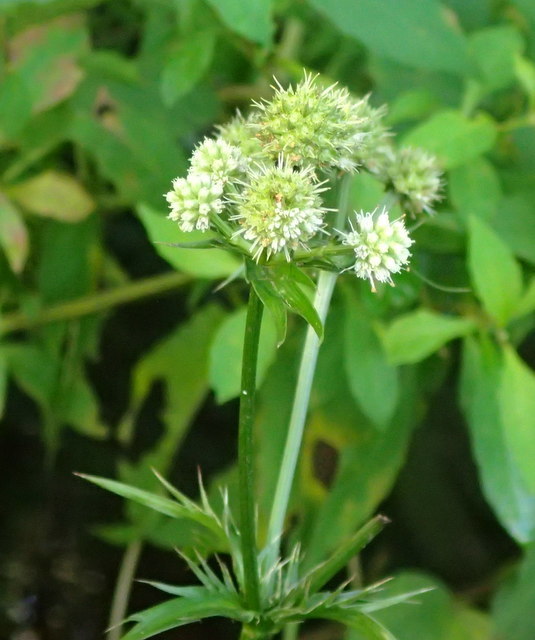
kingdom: Plantae
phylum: Tracheophyta
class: Magnoliopsida
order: Apiales
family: Apiaceae
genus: Eryngium
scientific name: Eryngium yuccifolium
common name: Button eryngo
